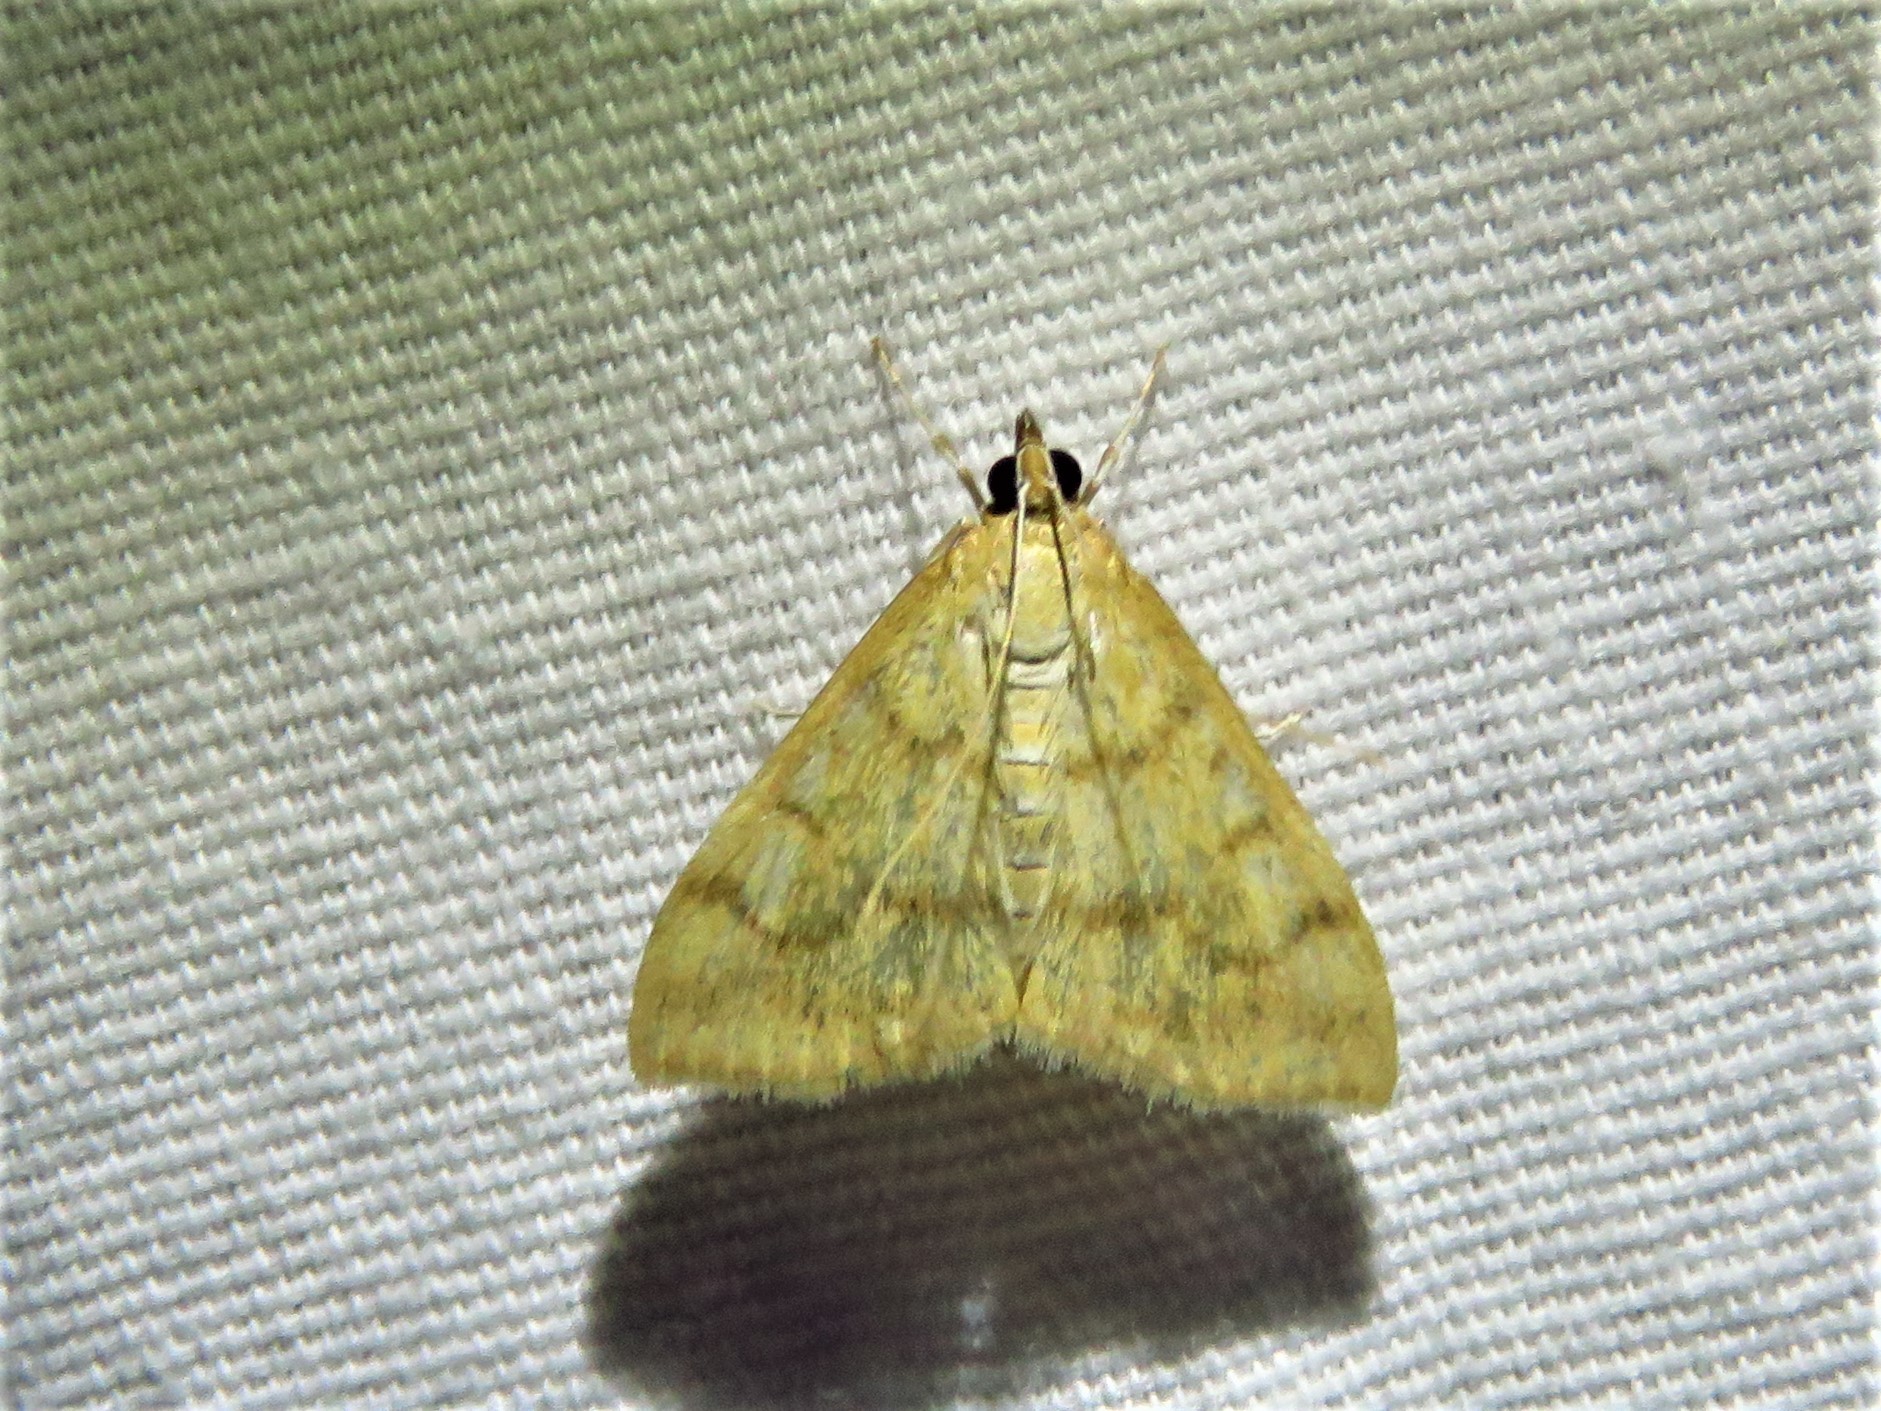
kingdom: Animalia
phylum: Arthropoda
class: Insecta
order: Lepidoptera
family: Crambidae
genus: Hahncappsia
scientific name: Hahncappsia mancalis
